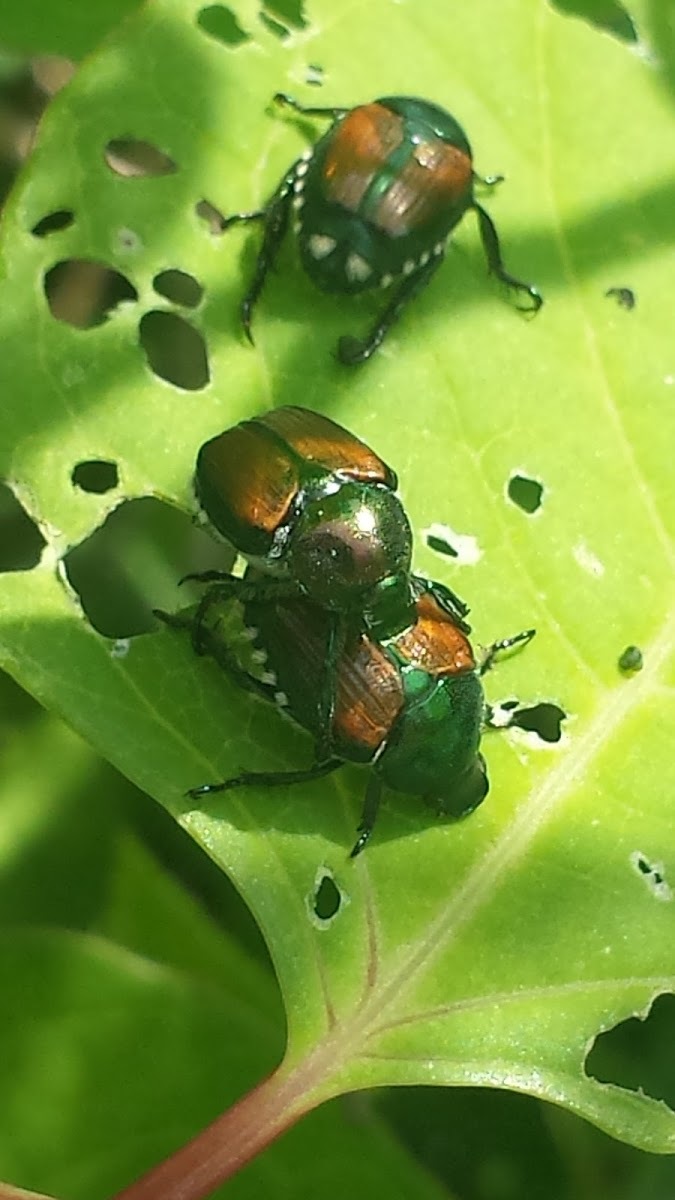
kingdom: Animalia
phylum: Arthropoda
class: Insecta
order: Coleoptera
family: Scarabaeidae
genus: Popillia
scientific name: Popillia japonica
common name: Japanese beetle
